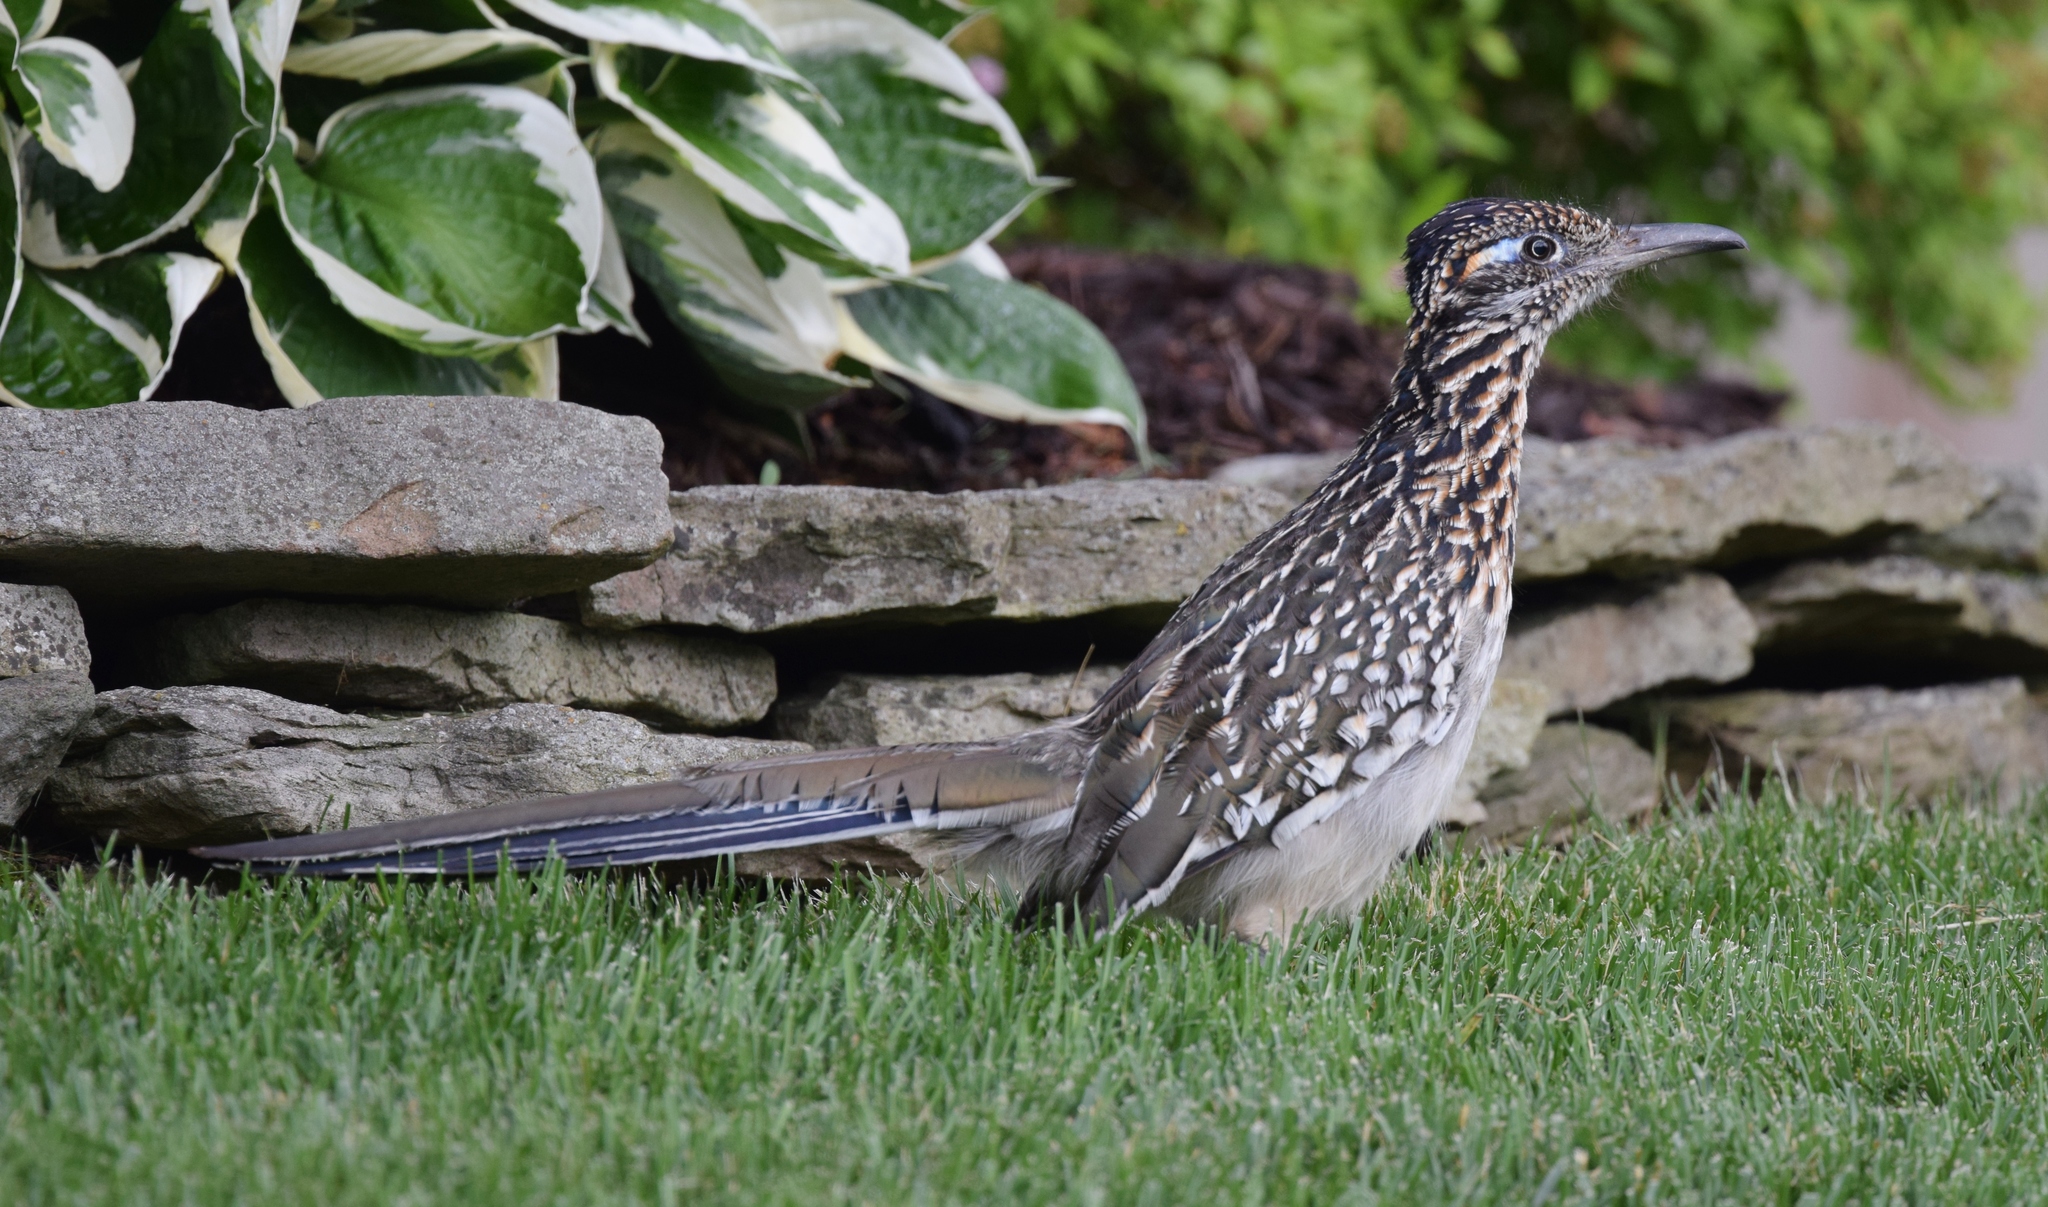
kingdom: Animalia
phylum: Chordata
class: Aves
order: Cuculiformes
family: Cuculidae
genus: Geococcyx
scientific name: Geococcyx californianus
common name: Greater roadrunner
